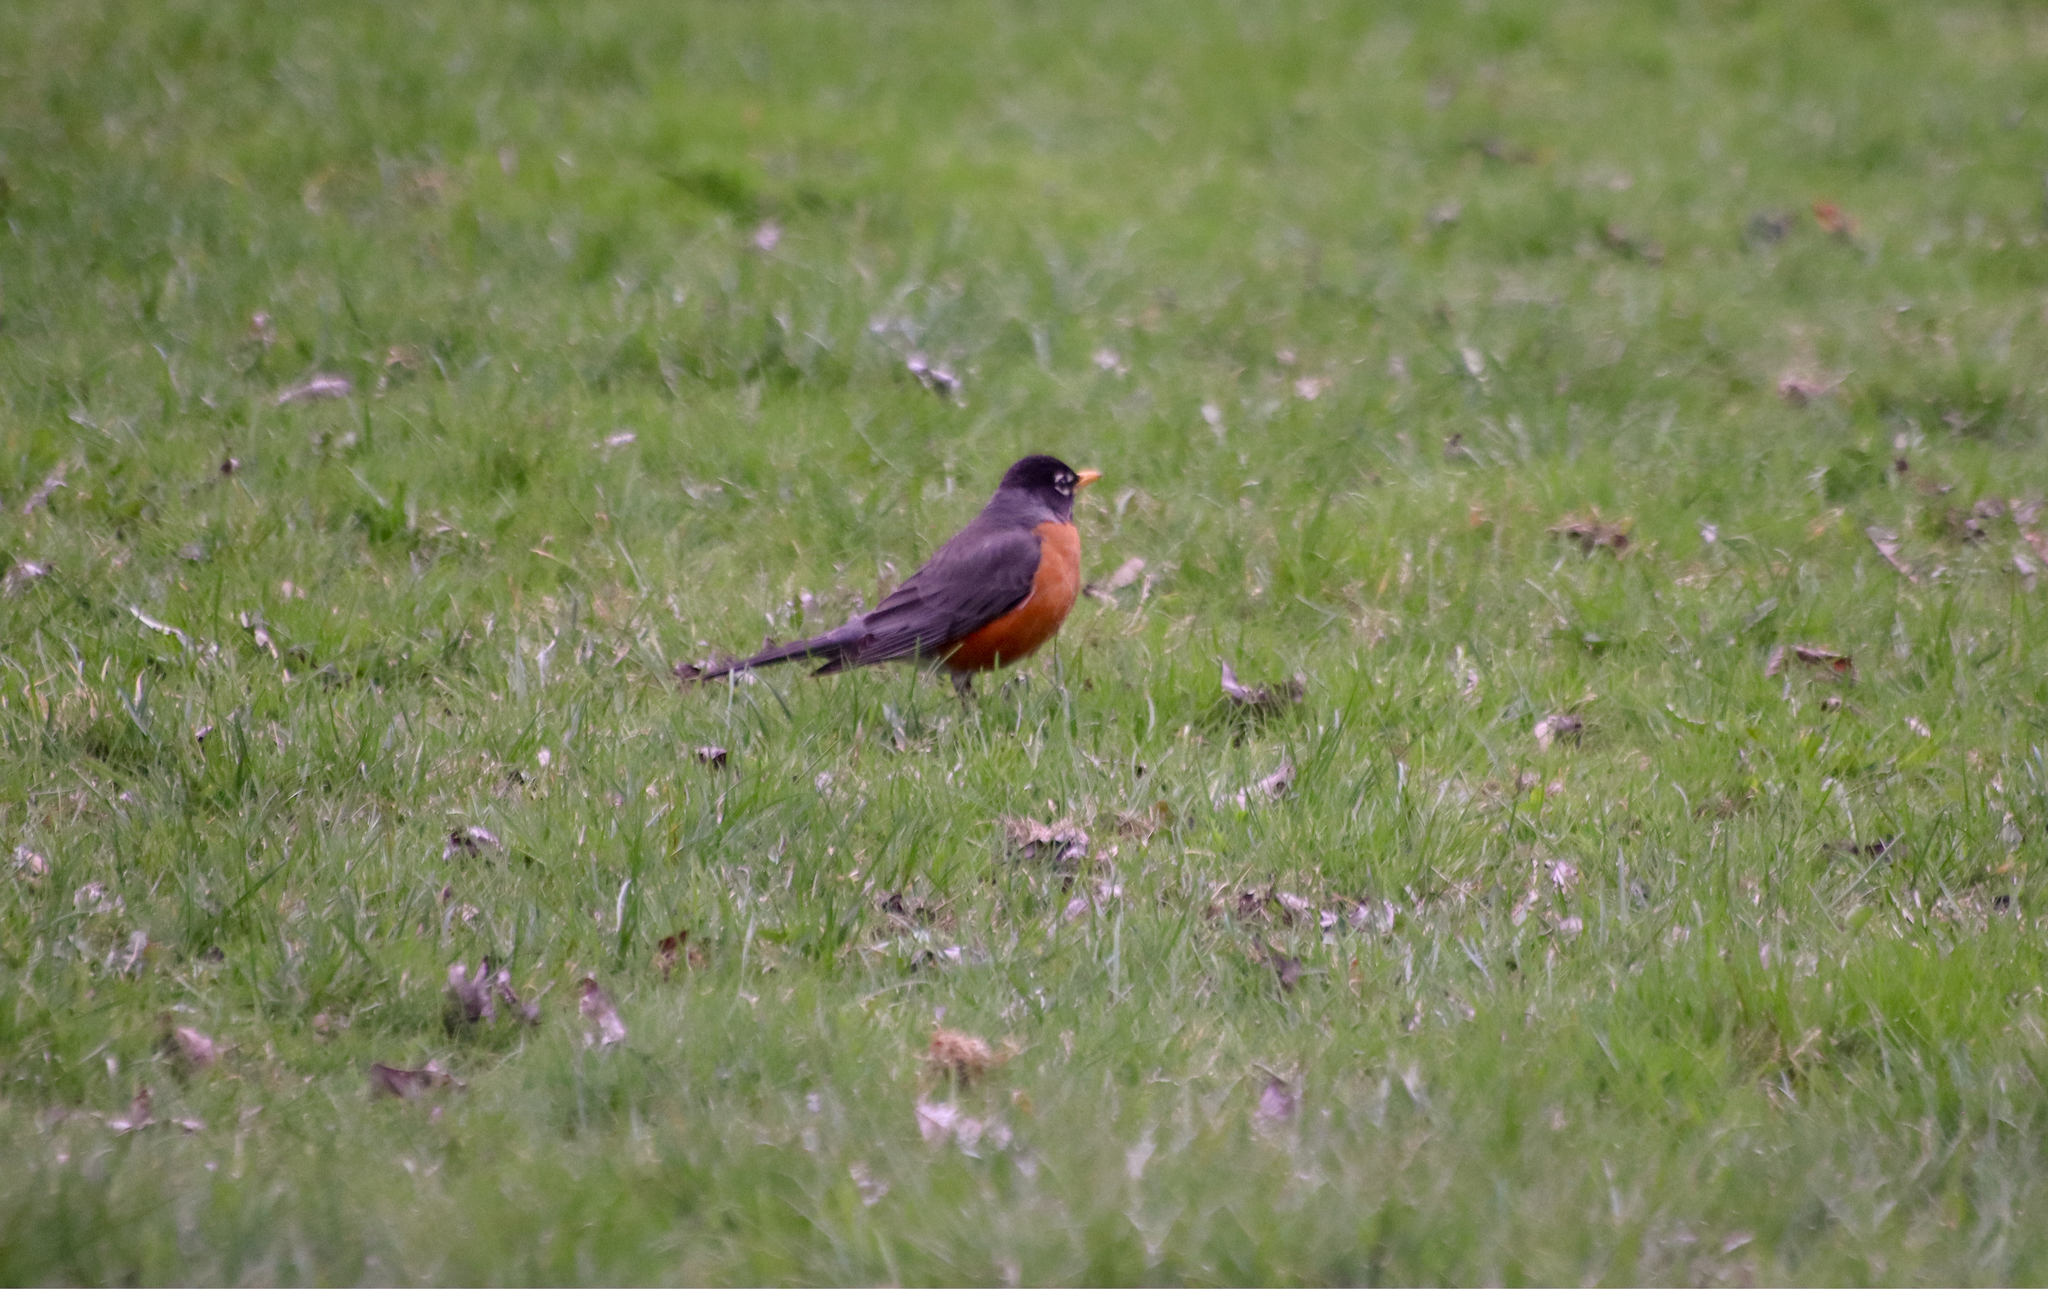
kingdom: Animalia
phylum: Chordata
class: Aves
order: Passeriformes
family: Turdidae
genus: Turdus
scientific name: Turdus migratorius
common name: American robin
